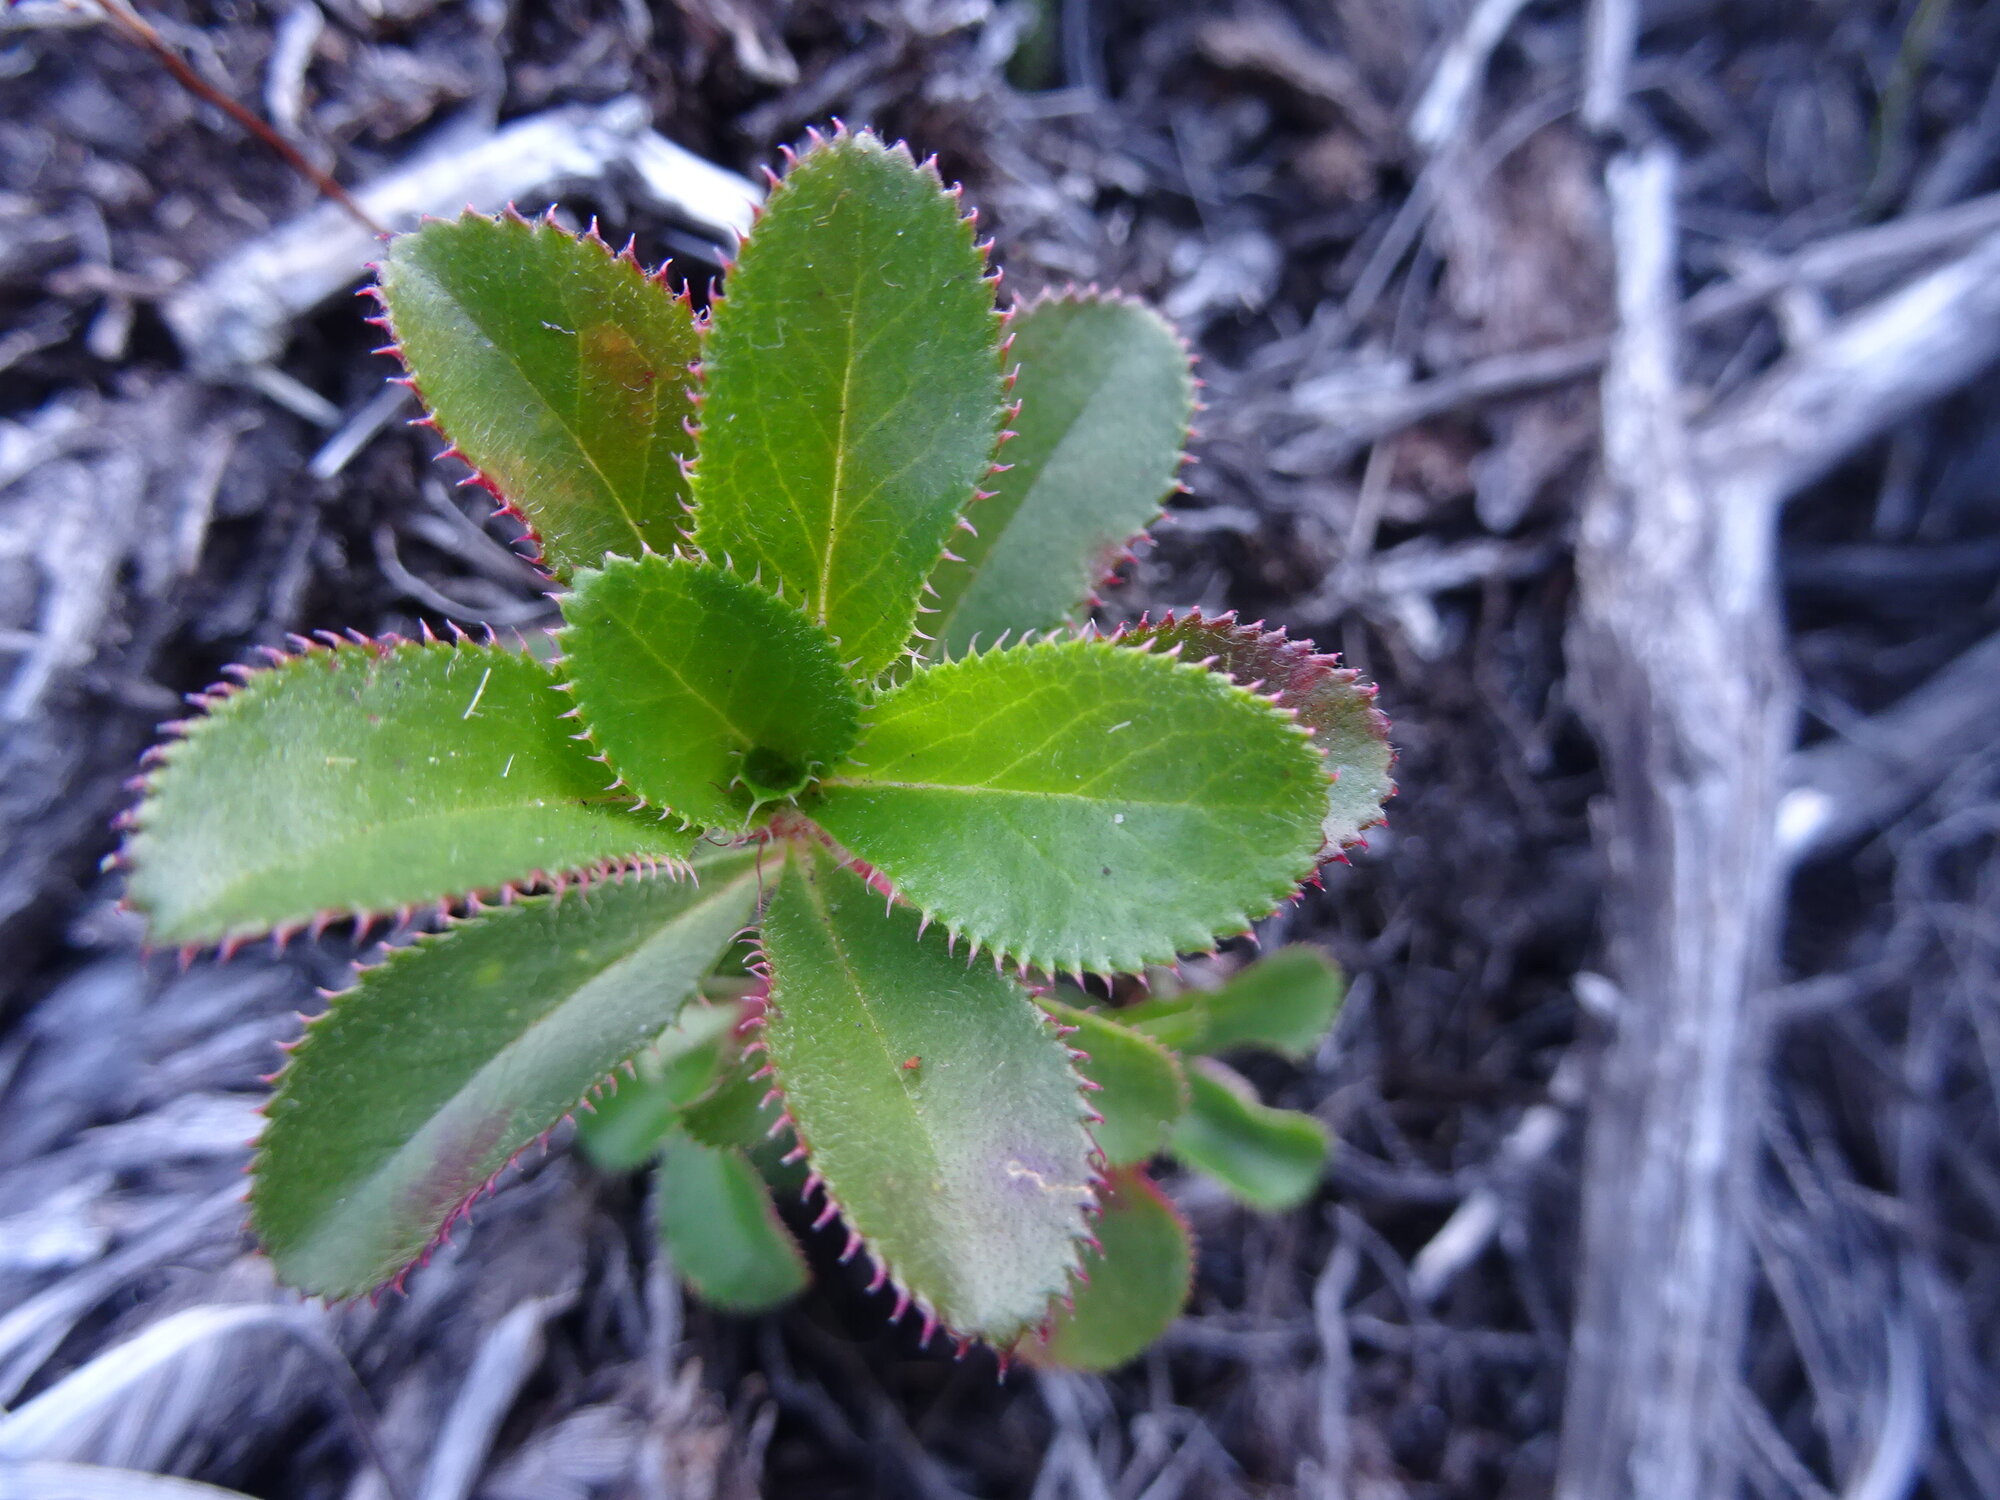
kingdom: Plantae
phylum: Tracheophyta
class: Magnoliopsida
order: Rosales
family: Rosaceae
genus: Cliffortia
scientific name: Cliffortia ferruginea
